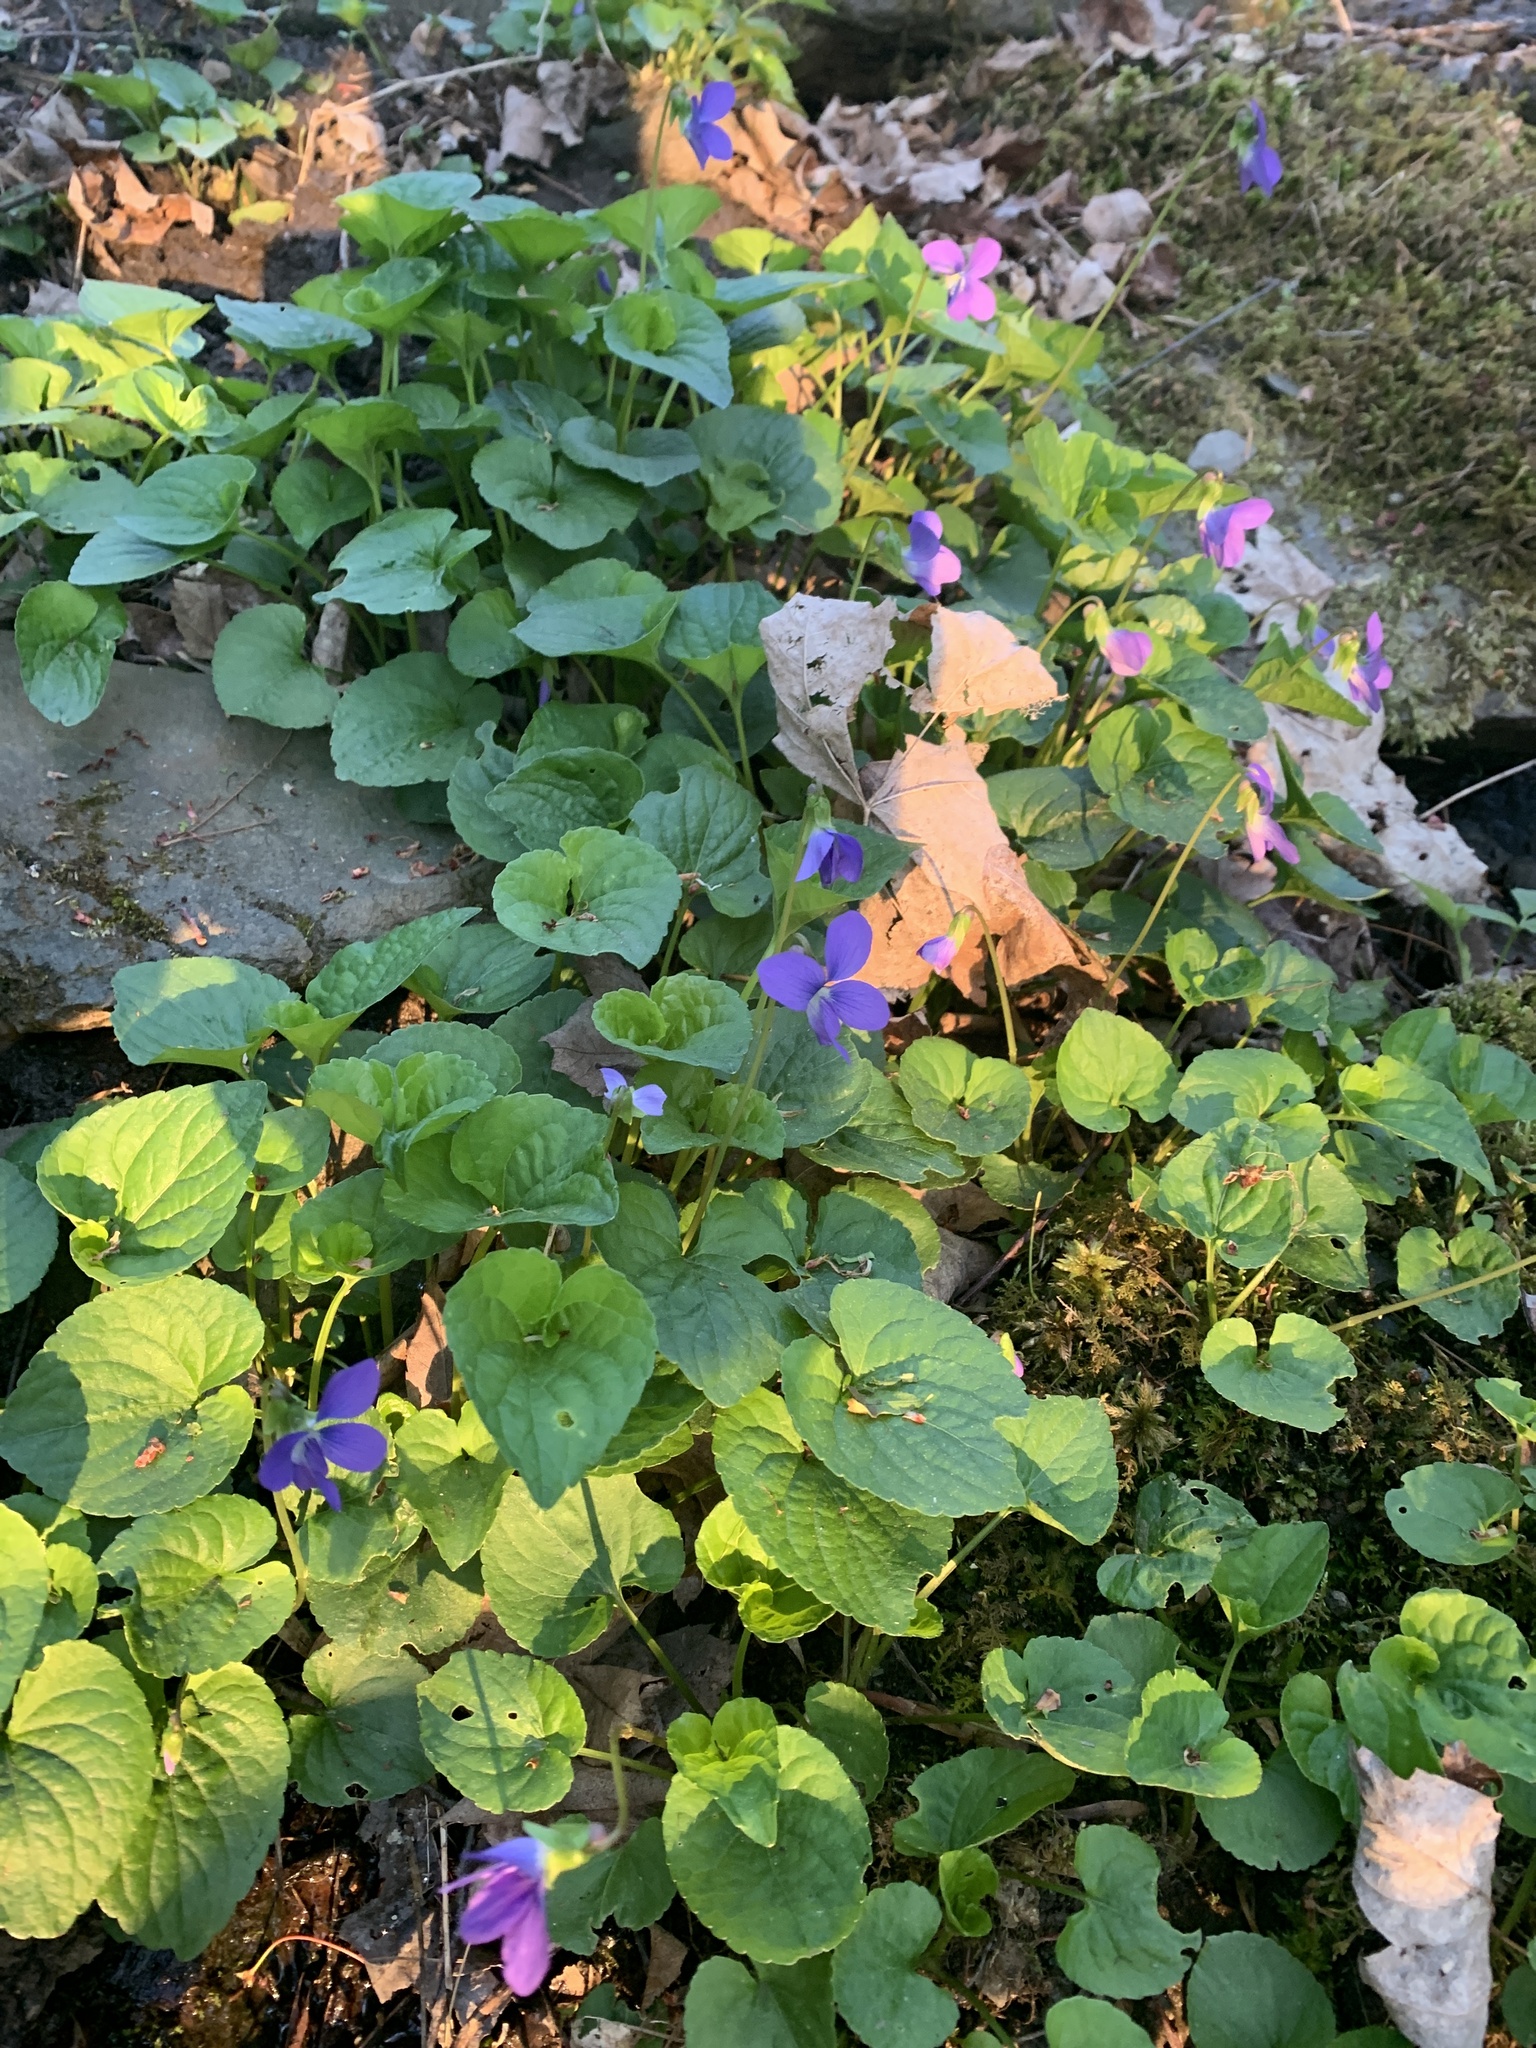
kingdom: Plantae
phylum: Tracheophyta
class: Magnoliopsida
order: Malpighiales
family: Violaceae
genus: Viola
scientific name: Viola sororia
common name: Dooryard violet
